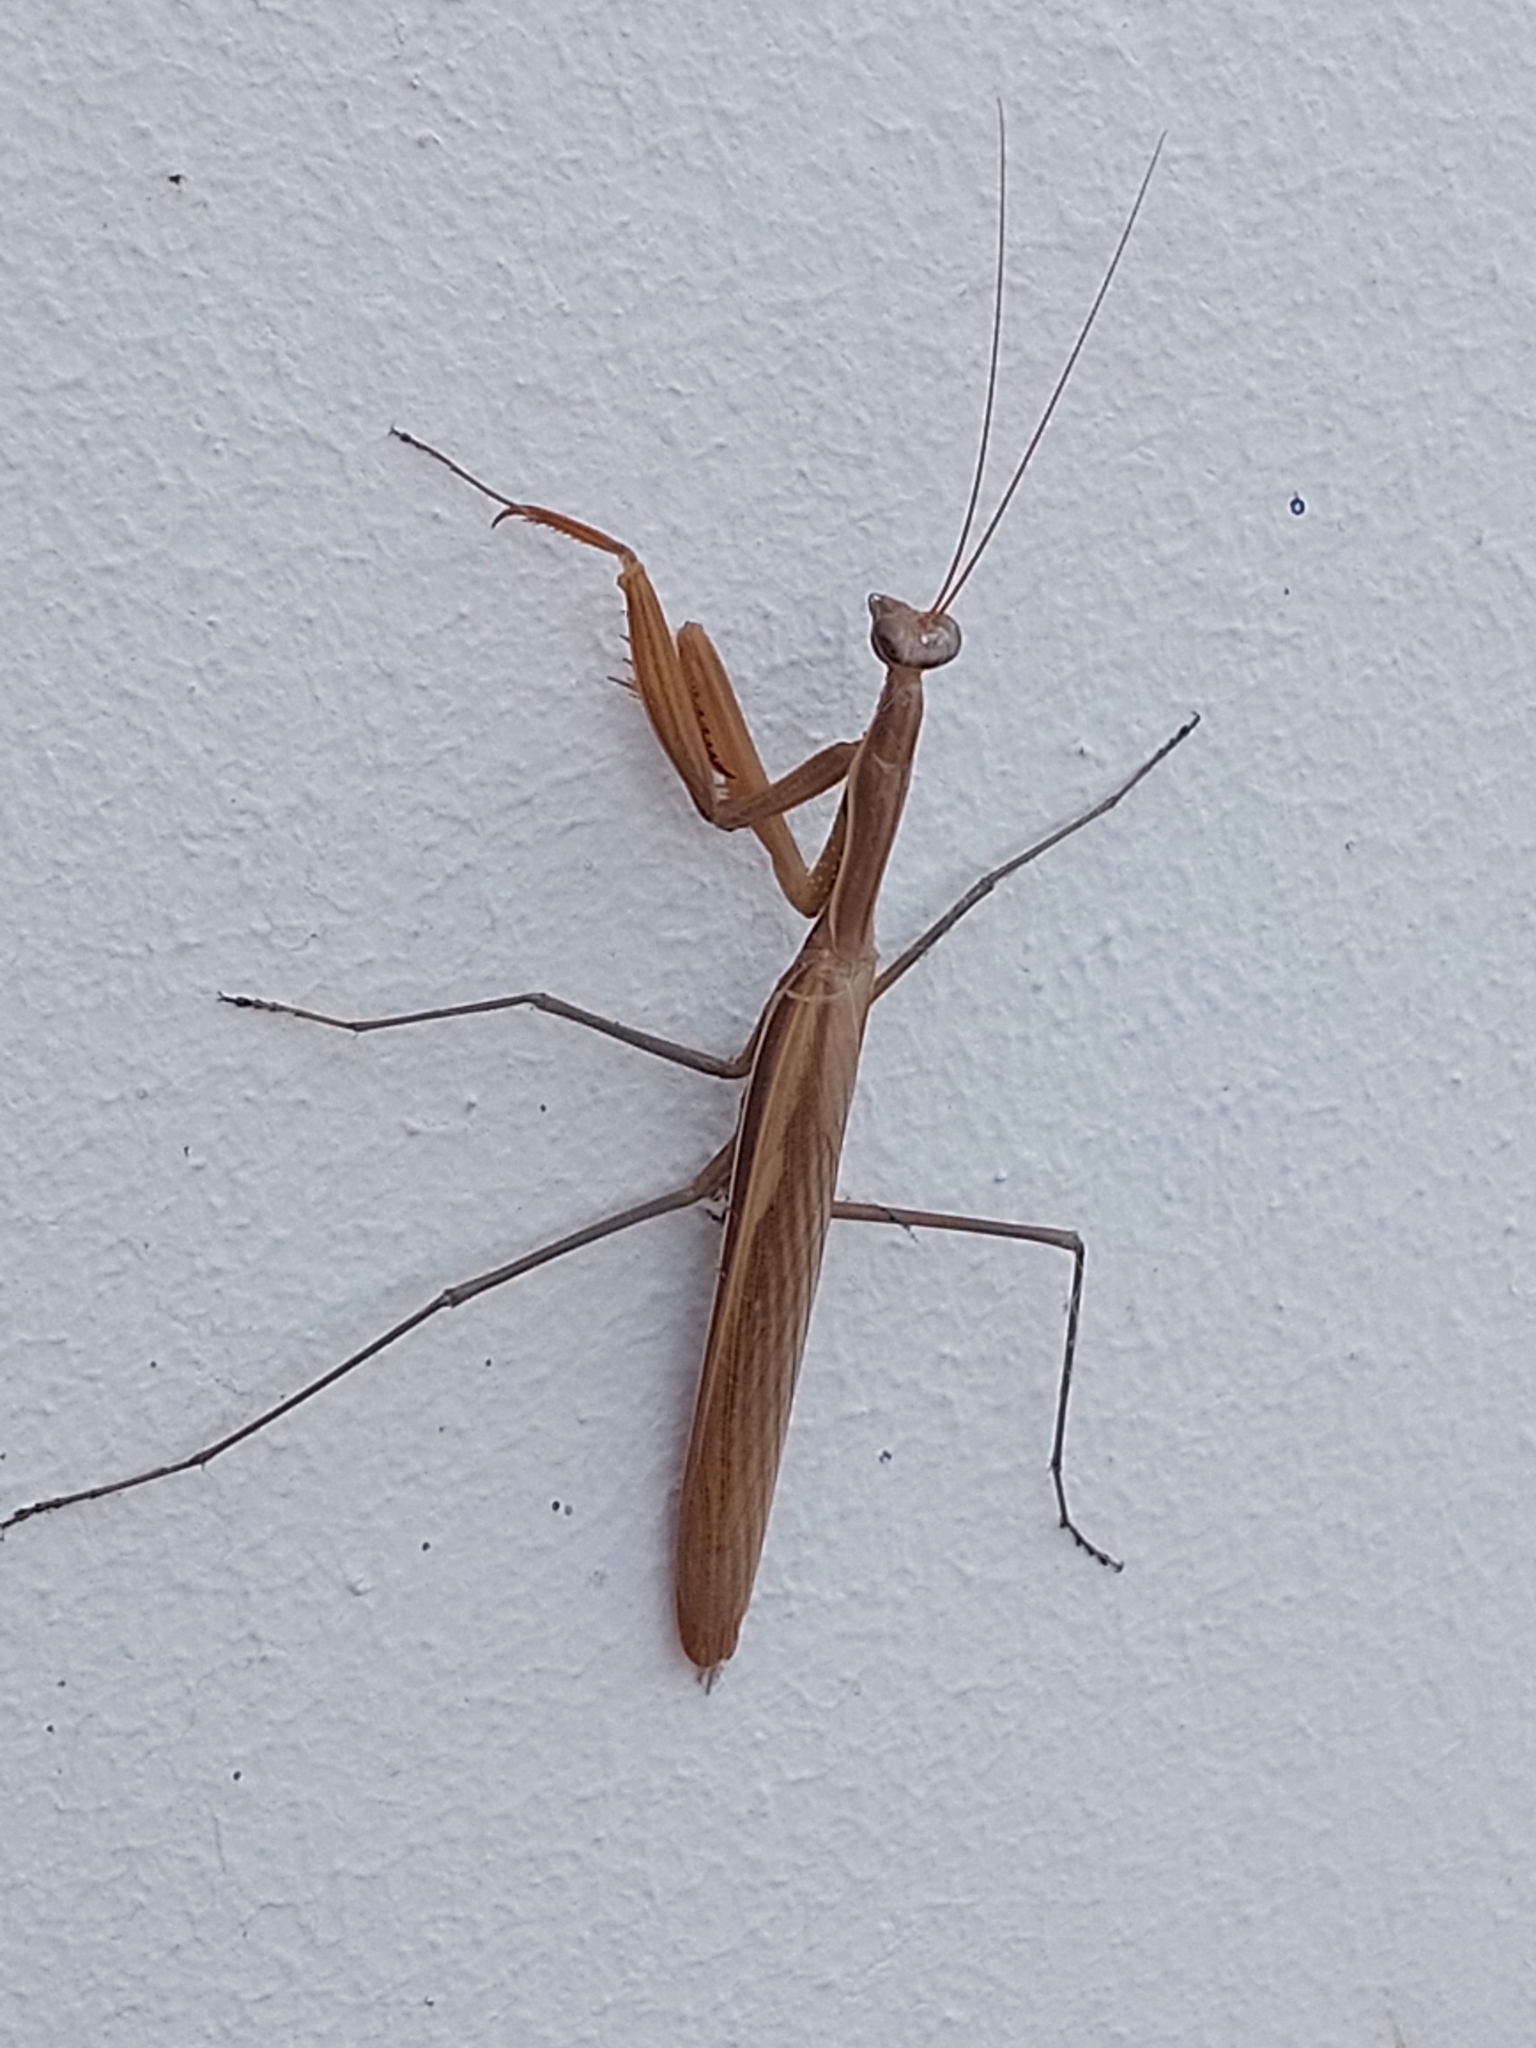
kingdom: Animalia
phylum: Arthropoda
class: Insecta
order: Mantodea
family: Mantidae
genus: Mantis
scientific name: Mantis religiosa
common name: Praying mantis
